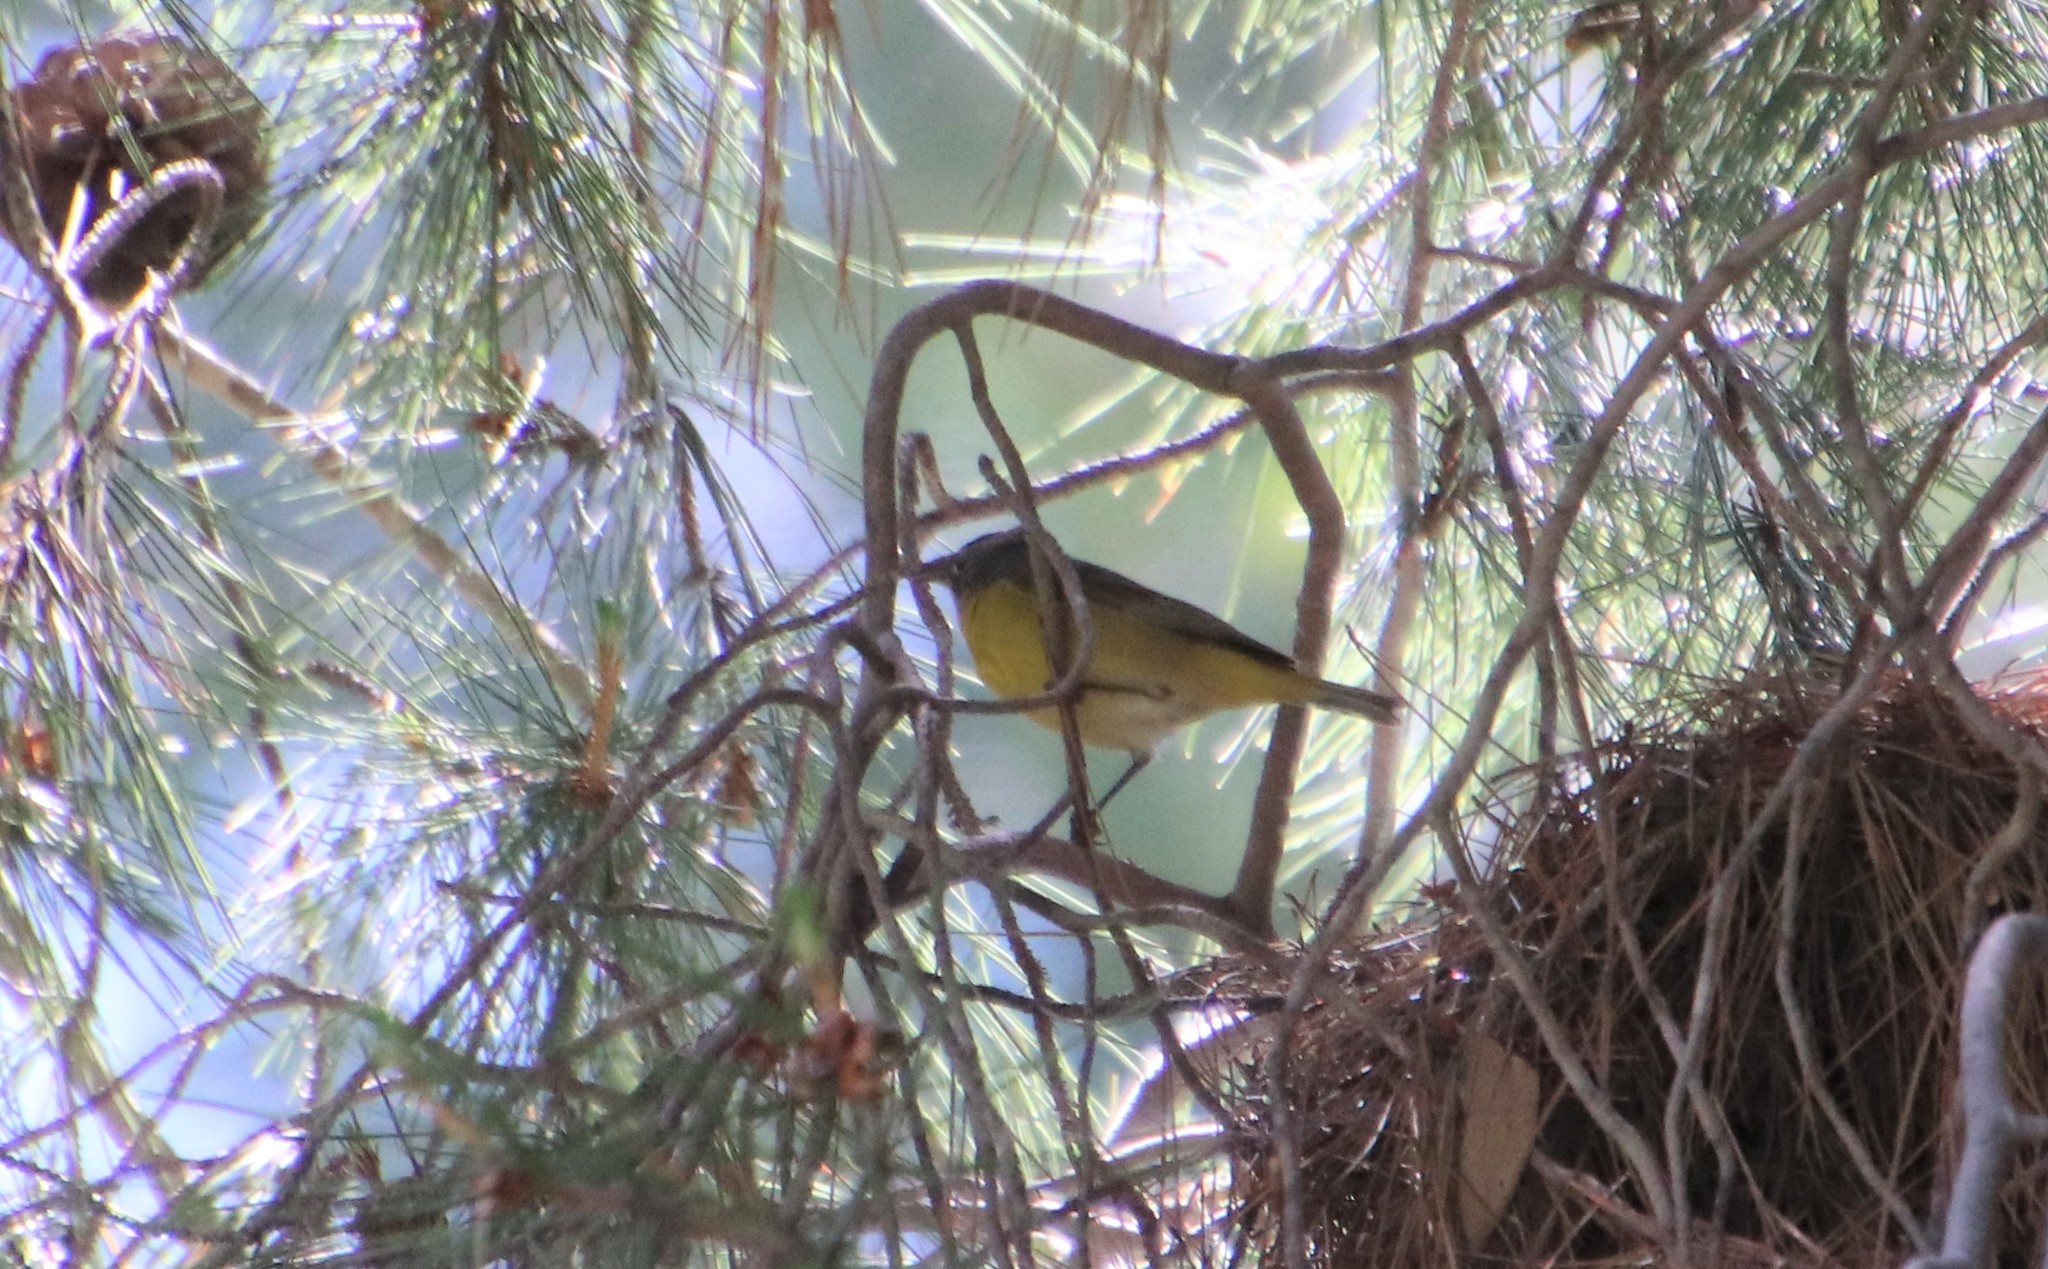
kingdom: Animalia
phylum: Chordata
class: Aves
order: Passeriformes
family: Parulidae
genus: Leiothlypis
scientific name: Leiothlypis ruficapilla
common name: Nashville warbler
